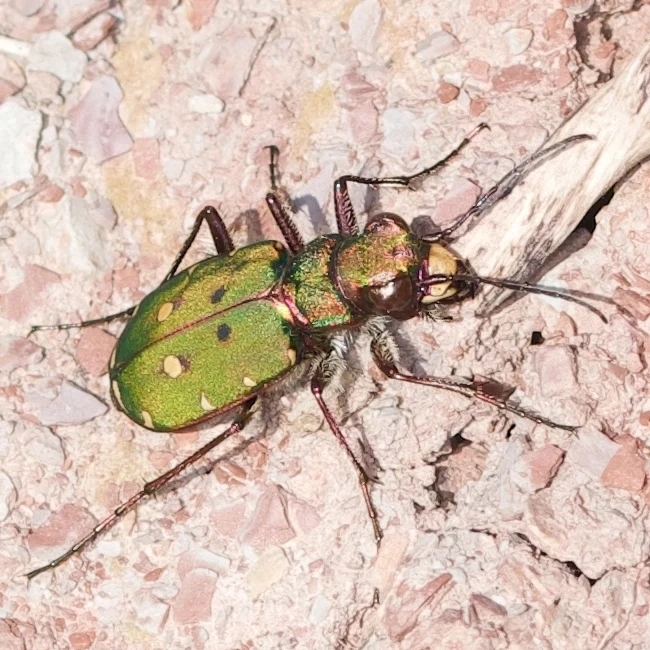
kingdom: Animalia
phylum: Arthropoda
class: Insecta
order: Coleoptera
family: Carabidae
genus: Cicindela
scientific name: Cicindela campestris
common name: Common tiger beetle
